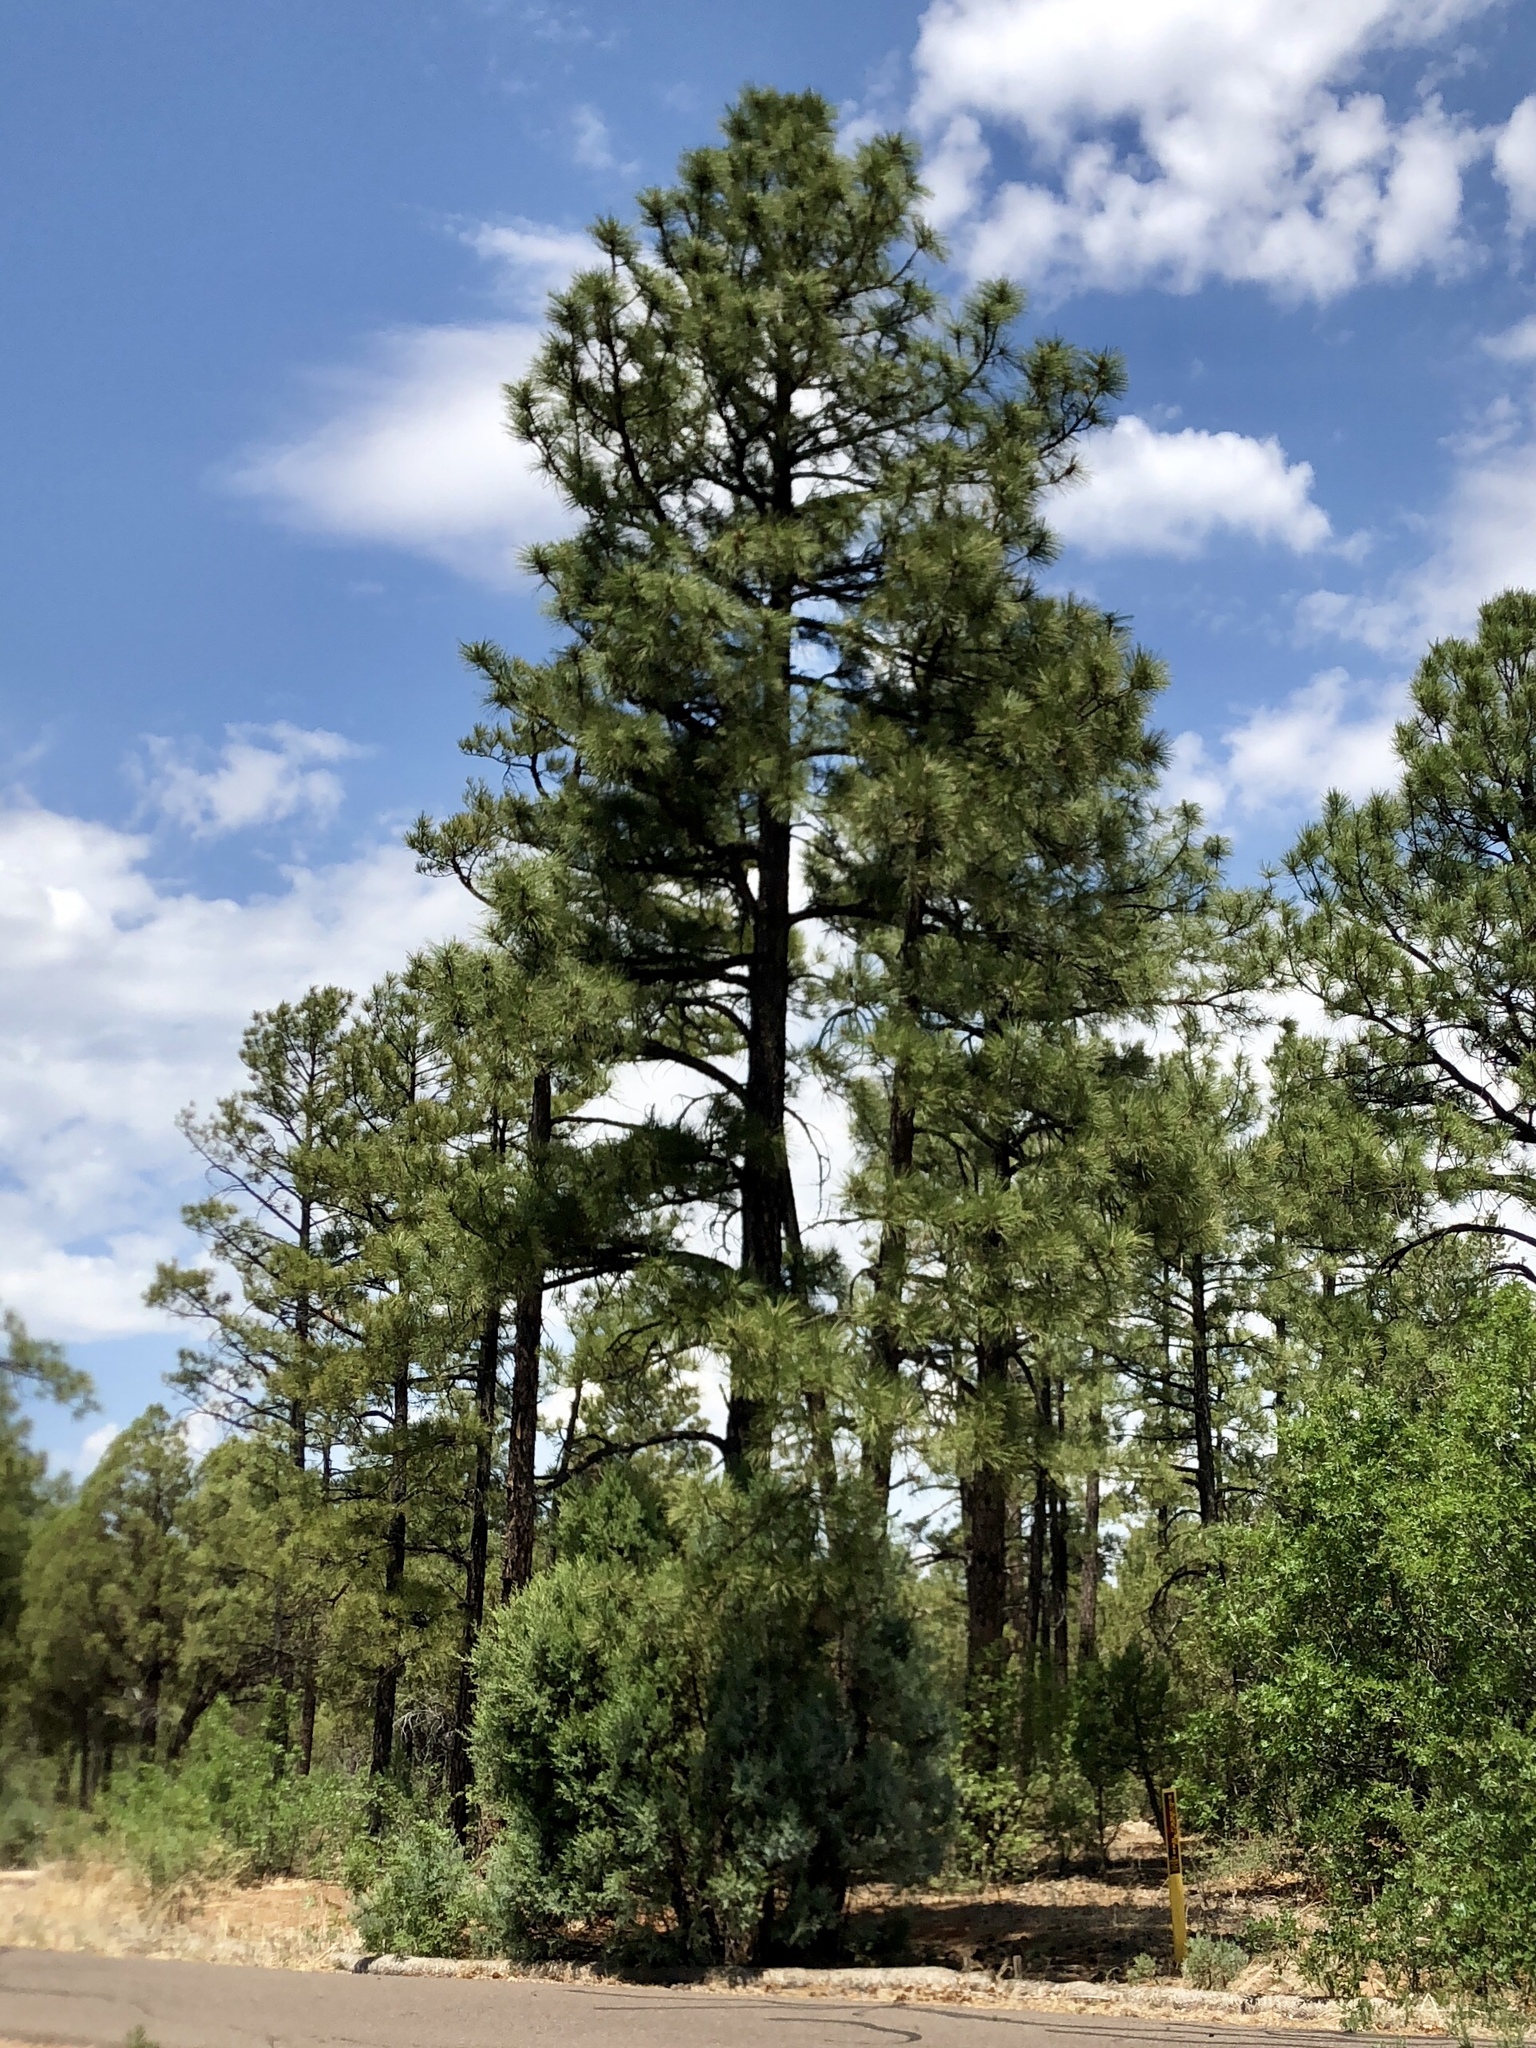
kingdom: Plantae
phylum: Tracheophyta
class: Pinopsida
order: Pinales
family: Pinaceae
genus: Pinus
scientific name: Pinus ponderosa
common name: Western yellow-pine
